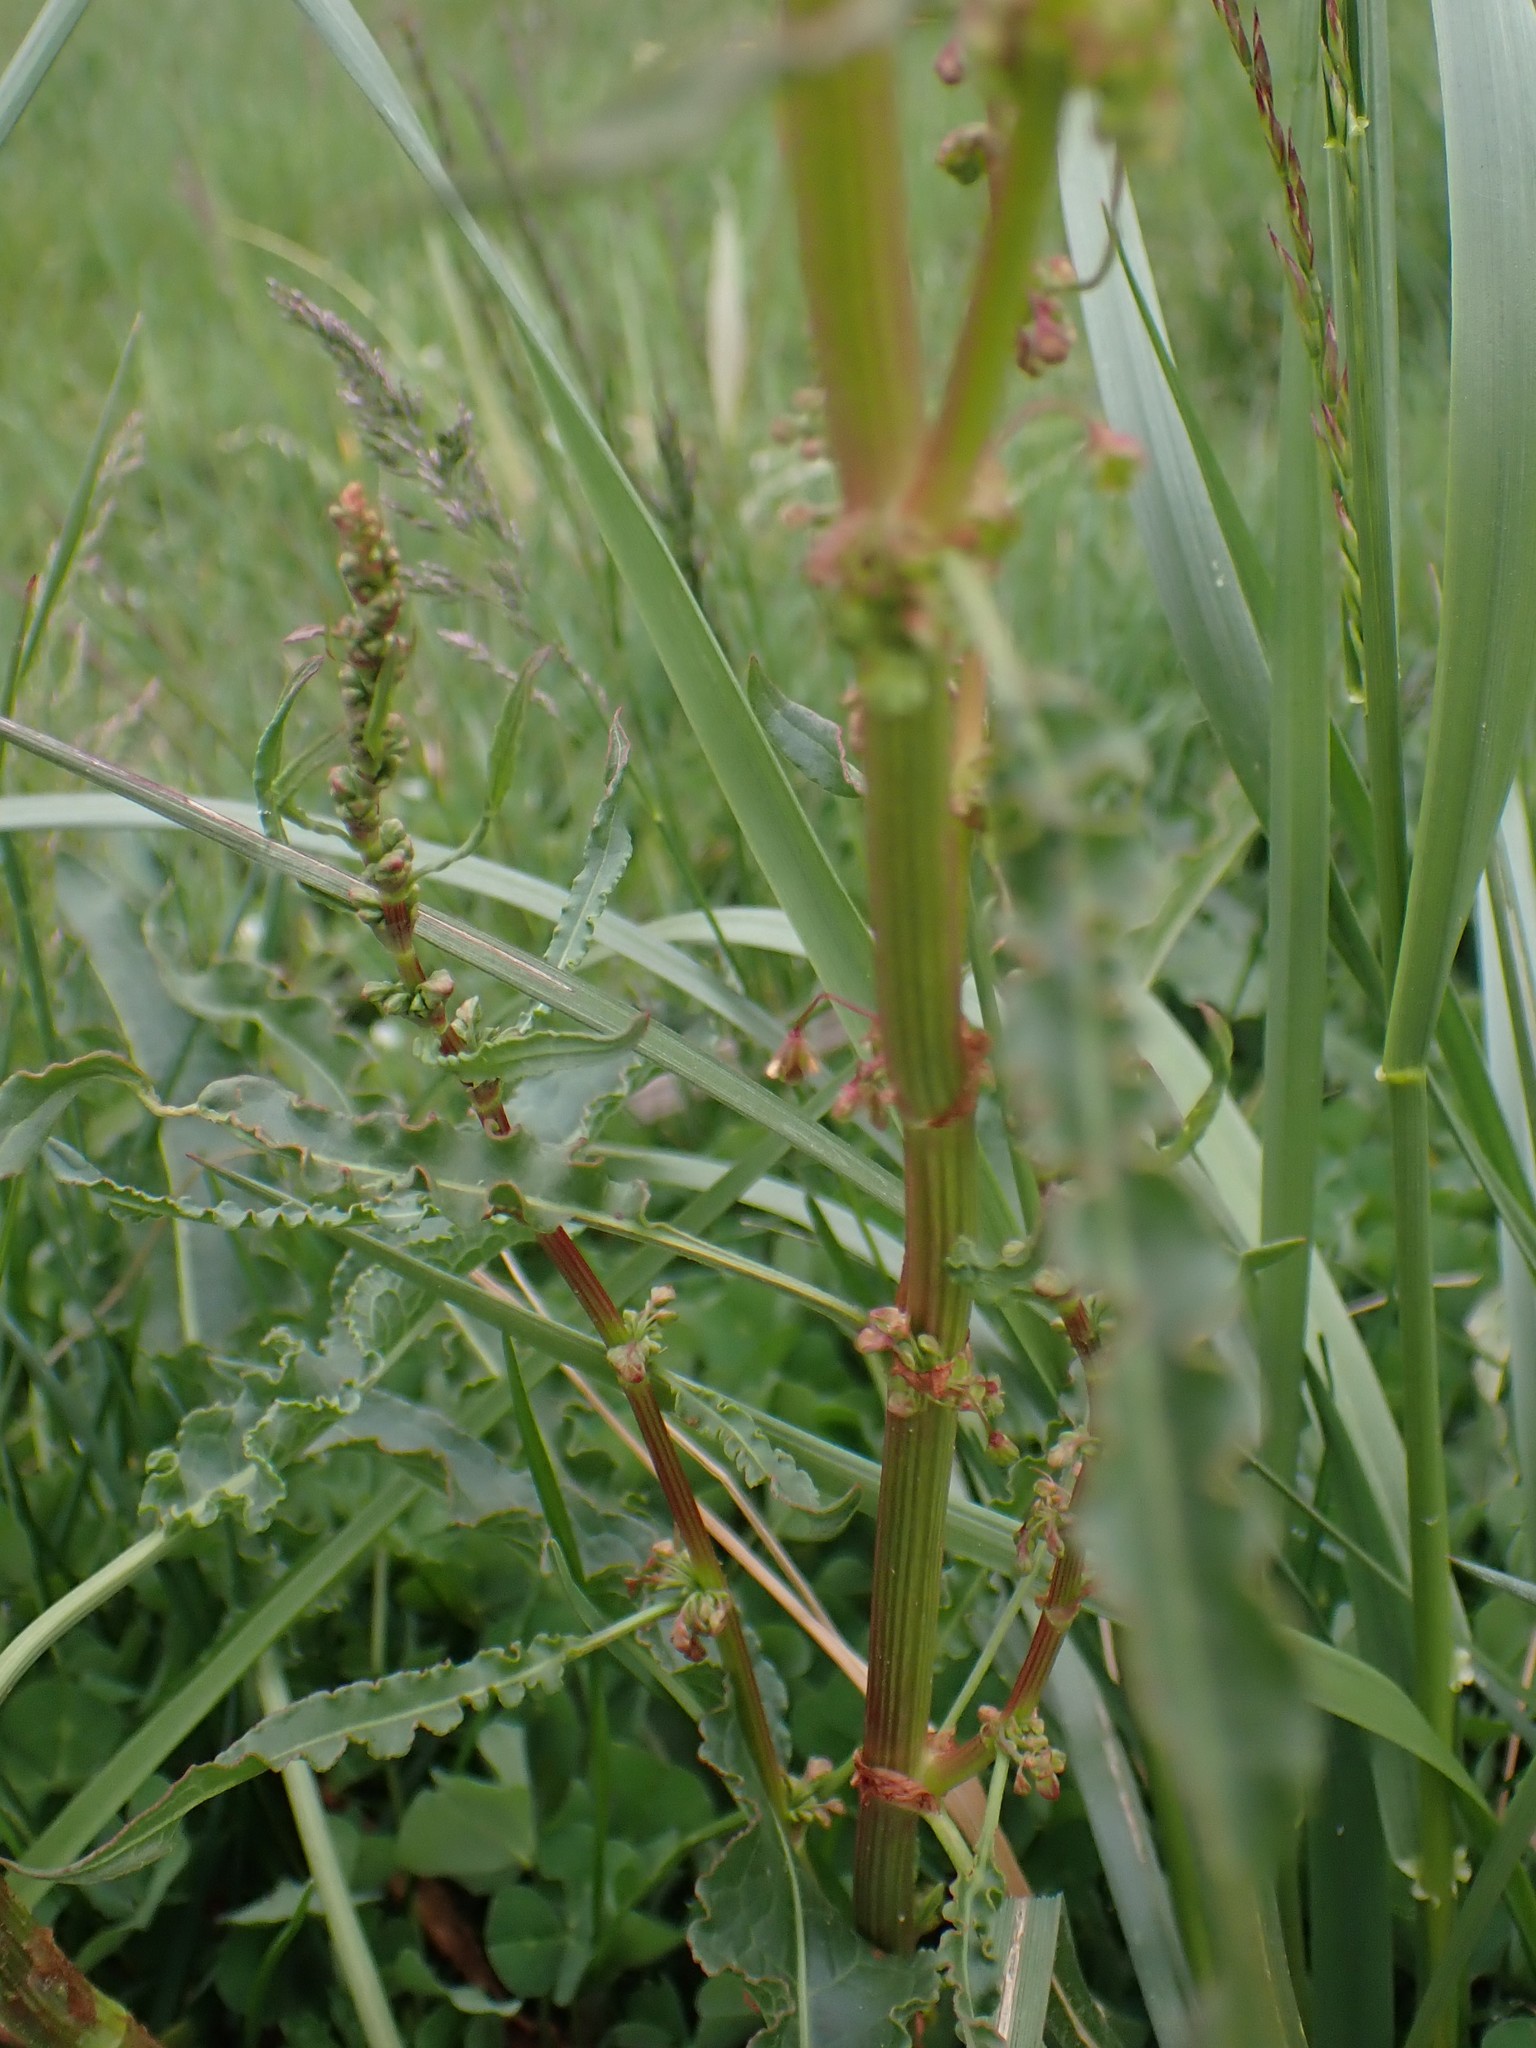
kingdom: Plantae
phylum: Tracheophyta
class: Magnoliopsida
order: Caryophyllales
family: Polygonaceae
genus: Rumex
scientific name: Rumex crispus
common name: Curled dock
